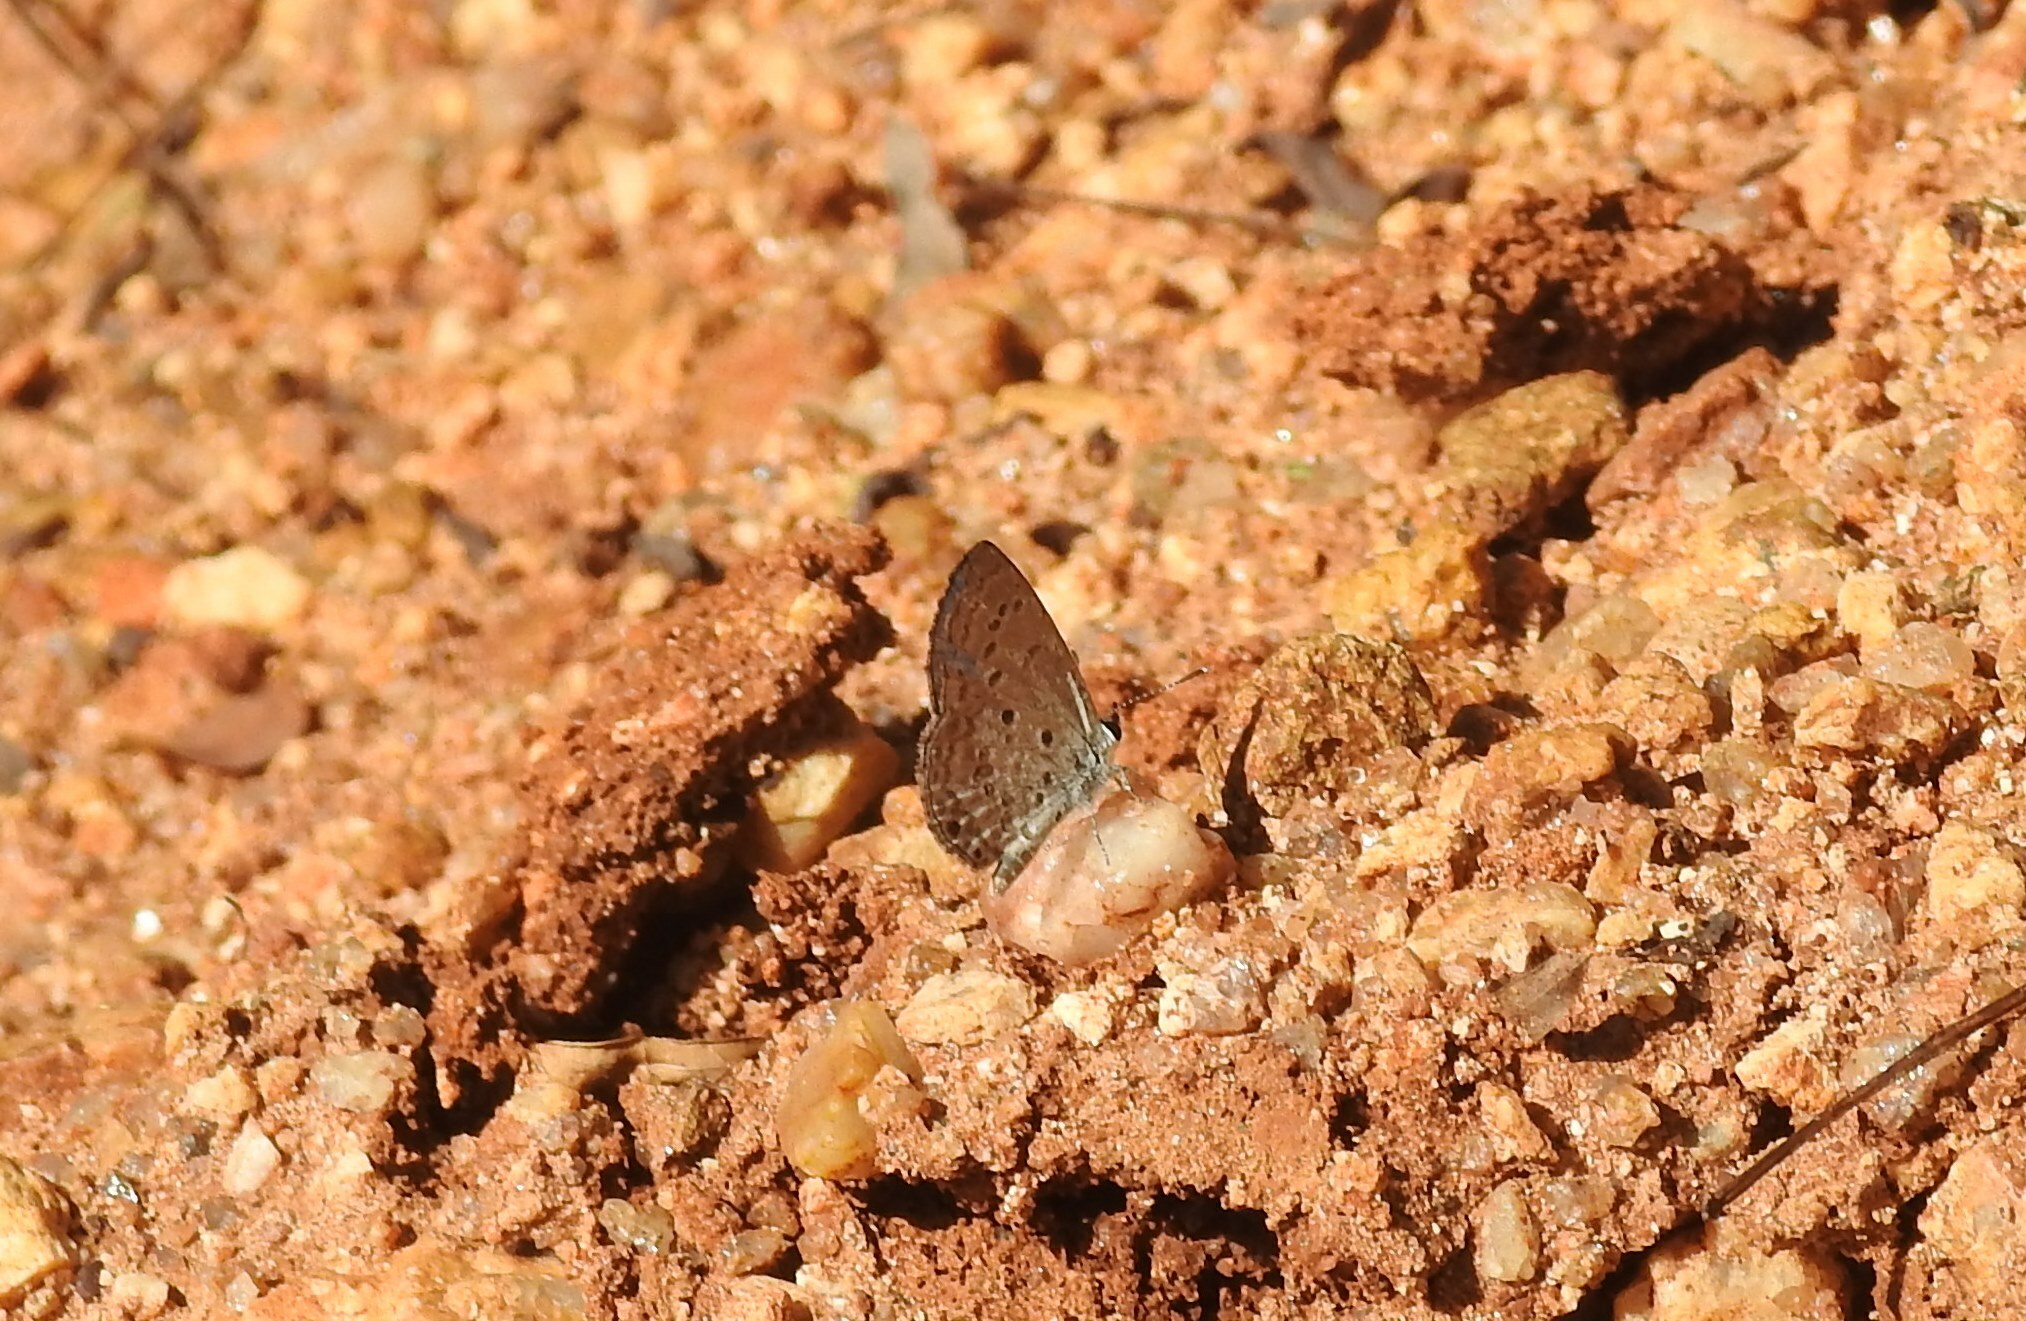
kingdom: Animalia
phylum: Arthropoda
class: Insecta
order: Lepidoptera
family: Lycaenidae
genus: Chilades
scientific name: Chilades laius
